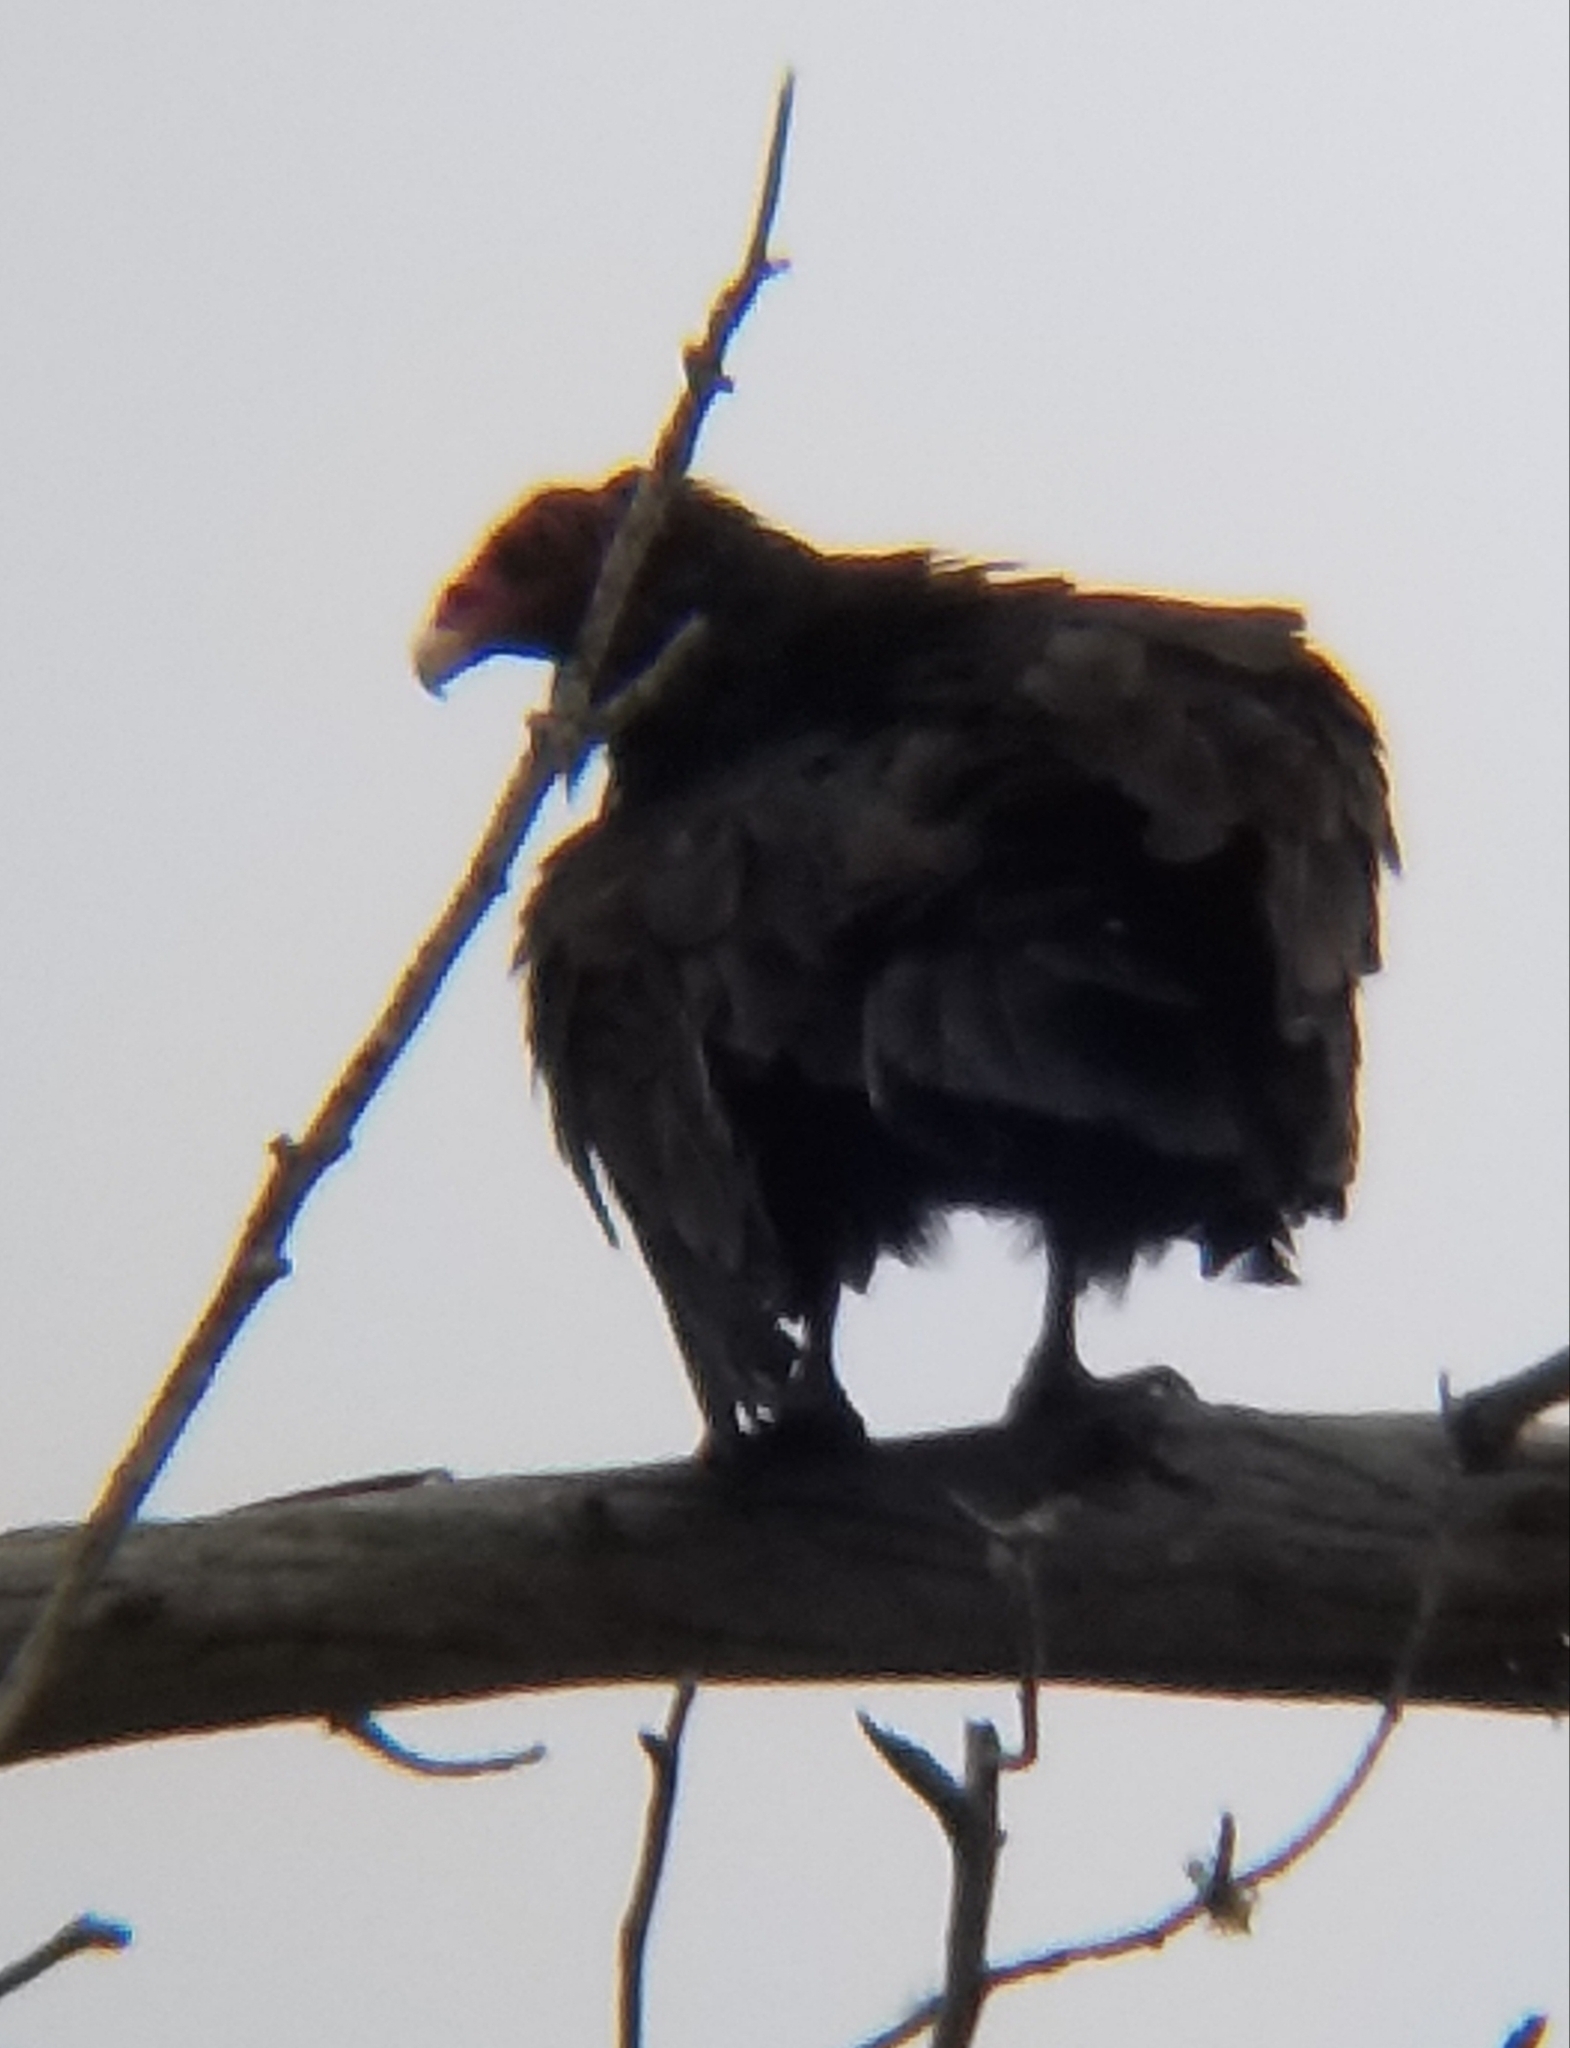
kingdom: Animalia
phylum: Chordata
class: Aves
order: Accipitriformes
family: Cathartidae
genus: Cathartes
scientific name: Cathartes aura
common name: Turkey vulture
